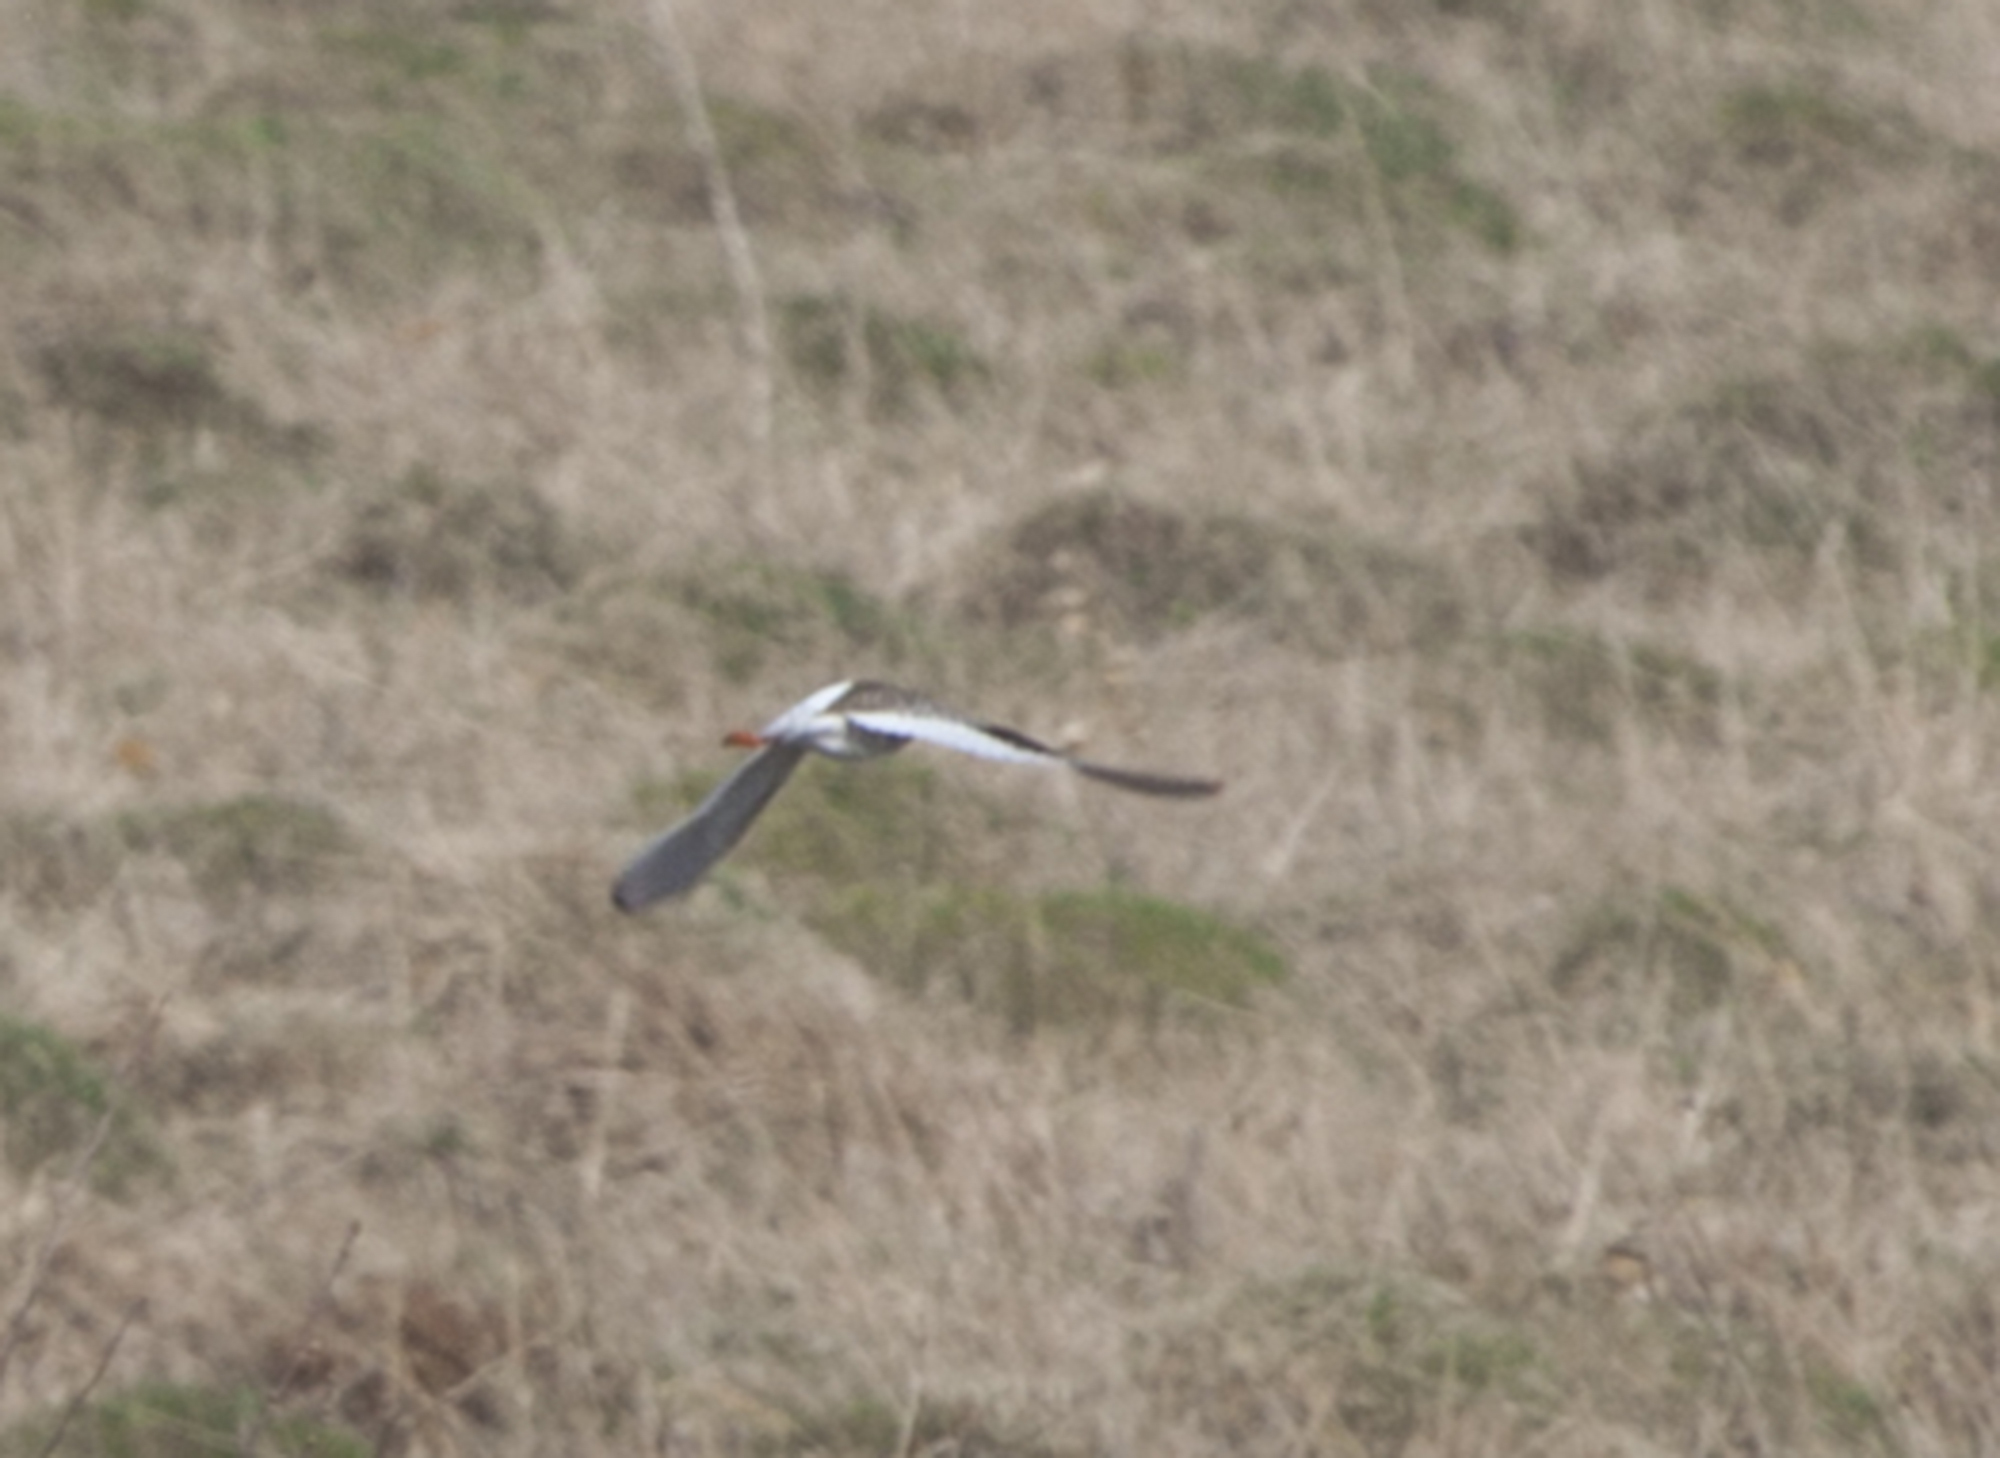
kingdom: Animalia
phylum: Chordata
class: Aves
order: Charadriiformes
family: Scolopacidae
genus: Tringa
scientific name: Tringa totanus
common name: Common redshank
